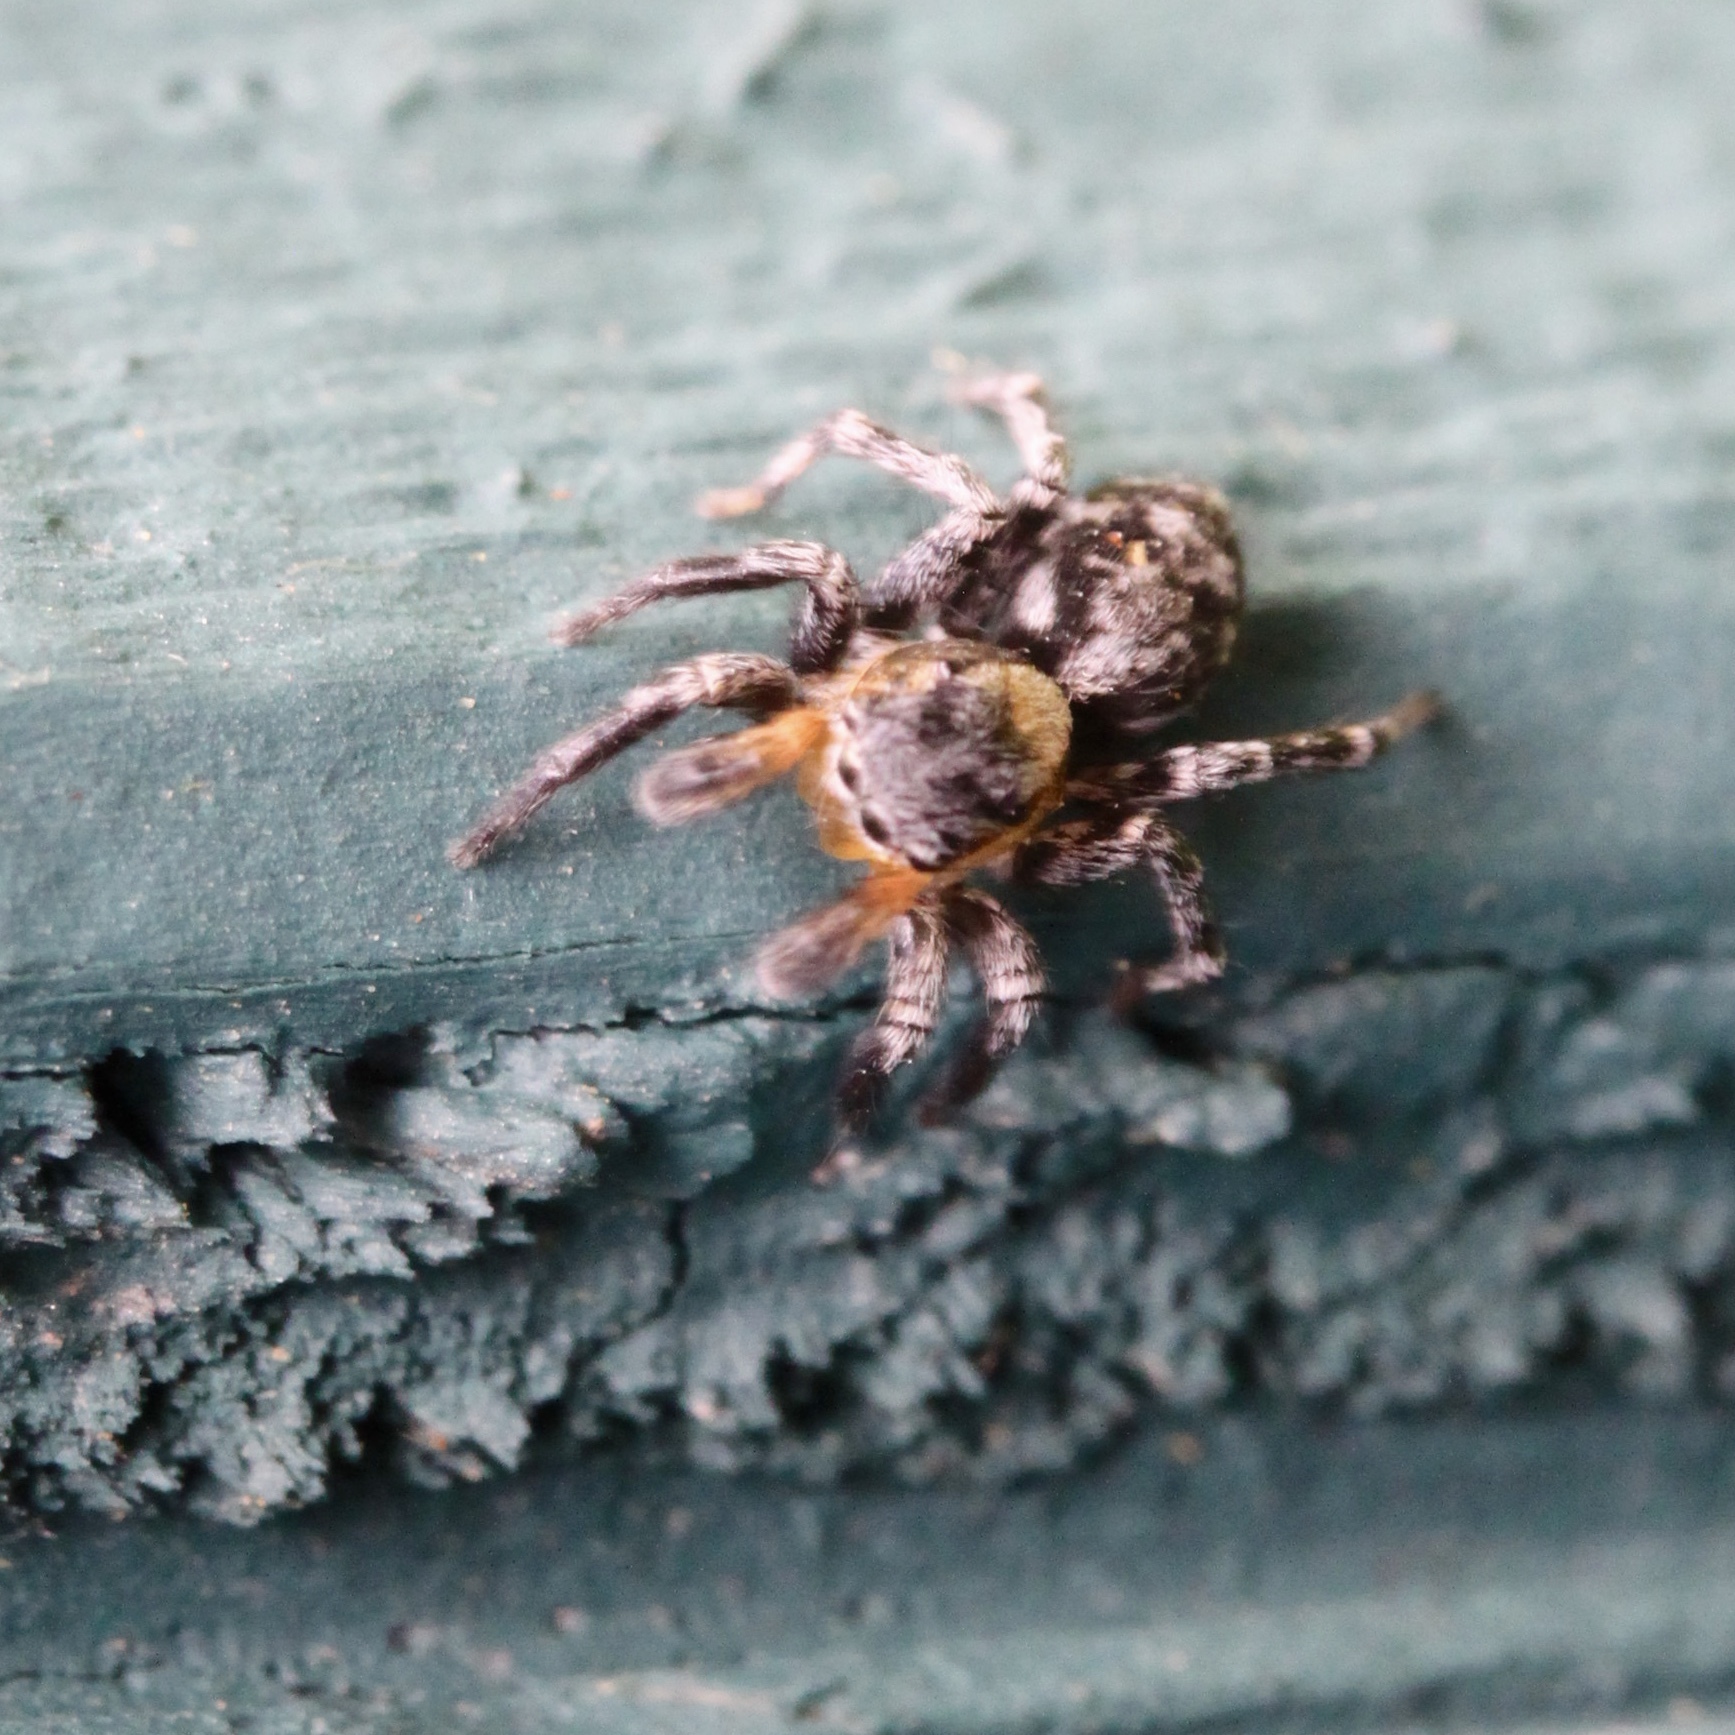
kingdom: Animalia
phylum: Arthropoda
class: Arachnida
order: Araneae
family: Salticidae
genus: Naphrys
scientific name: Naphrys pulex
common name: Flea jumping spider
